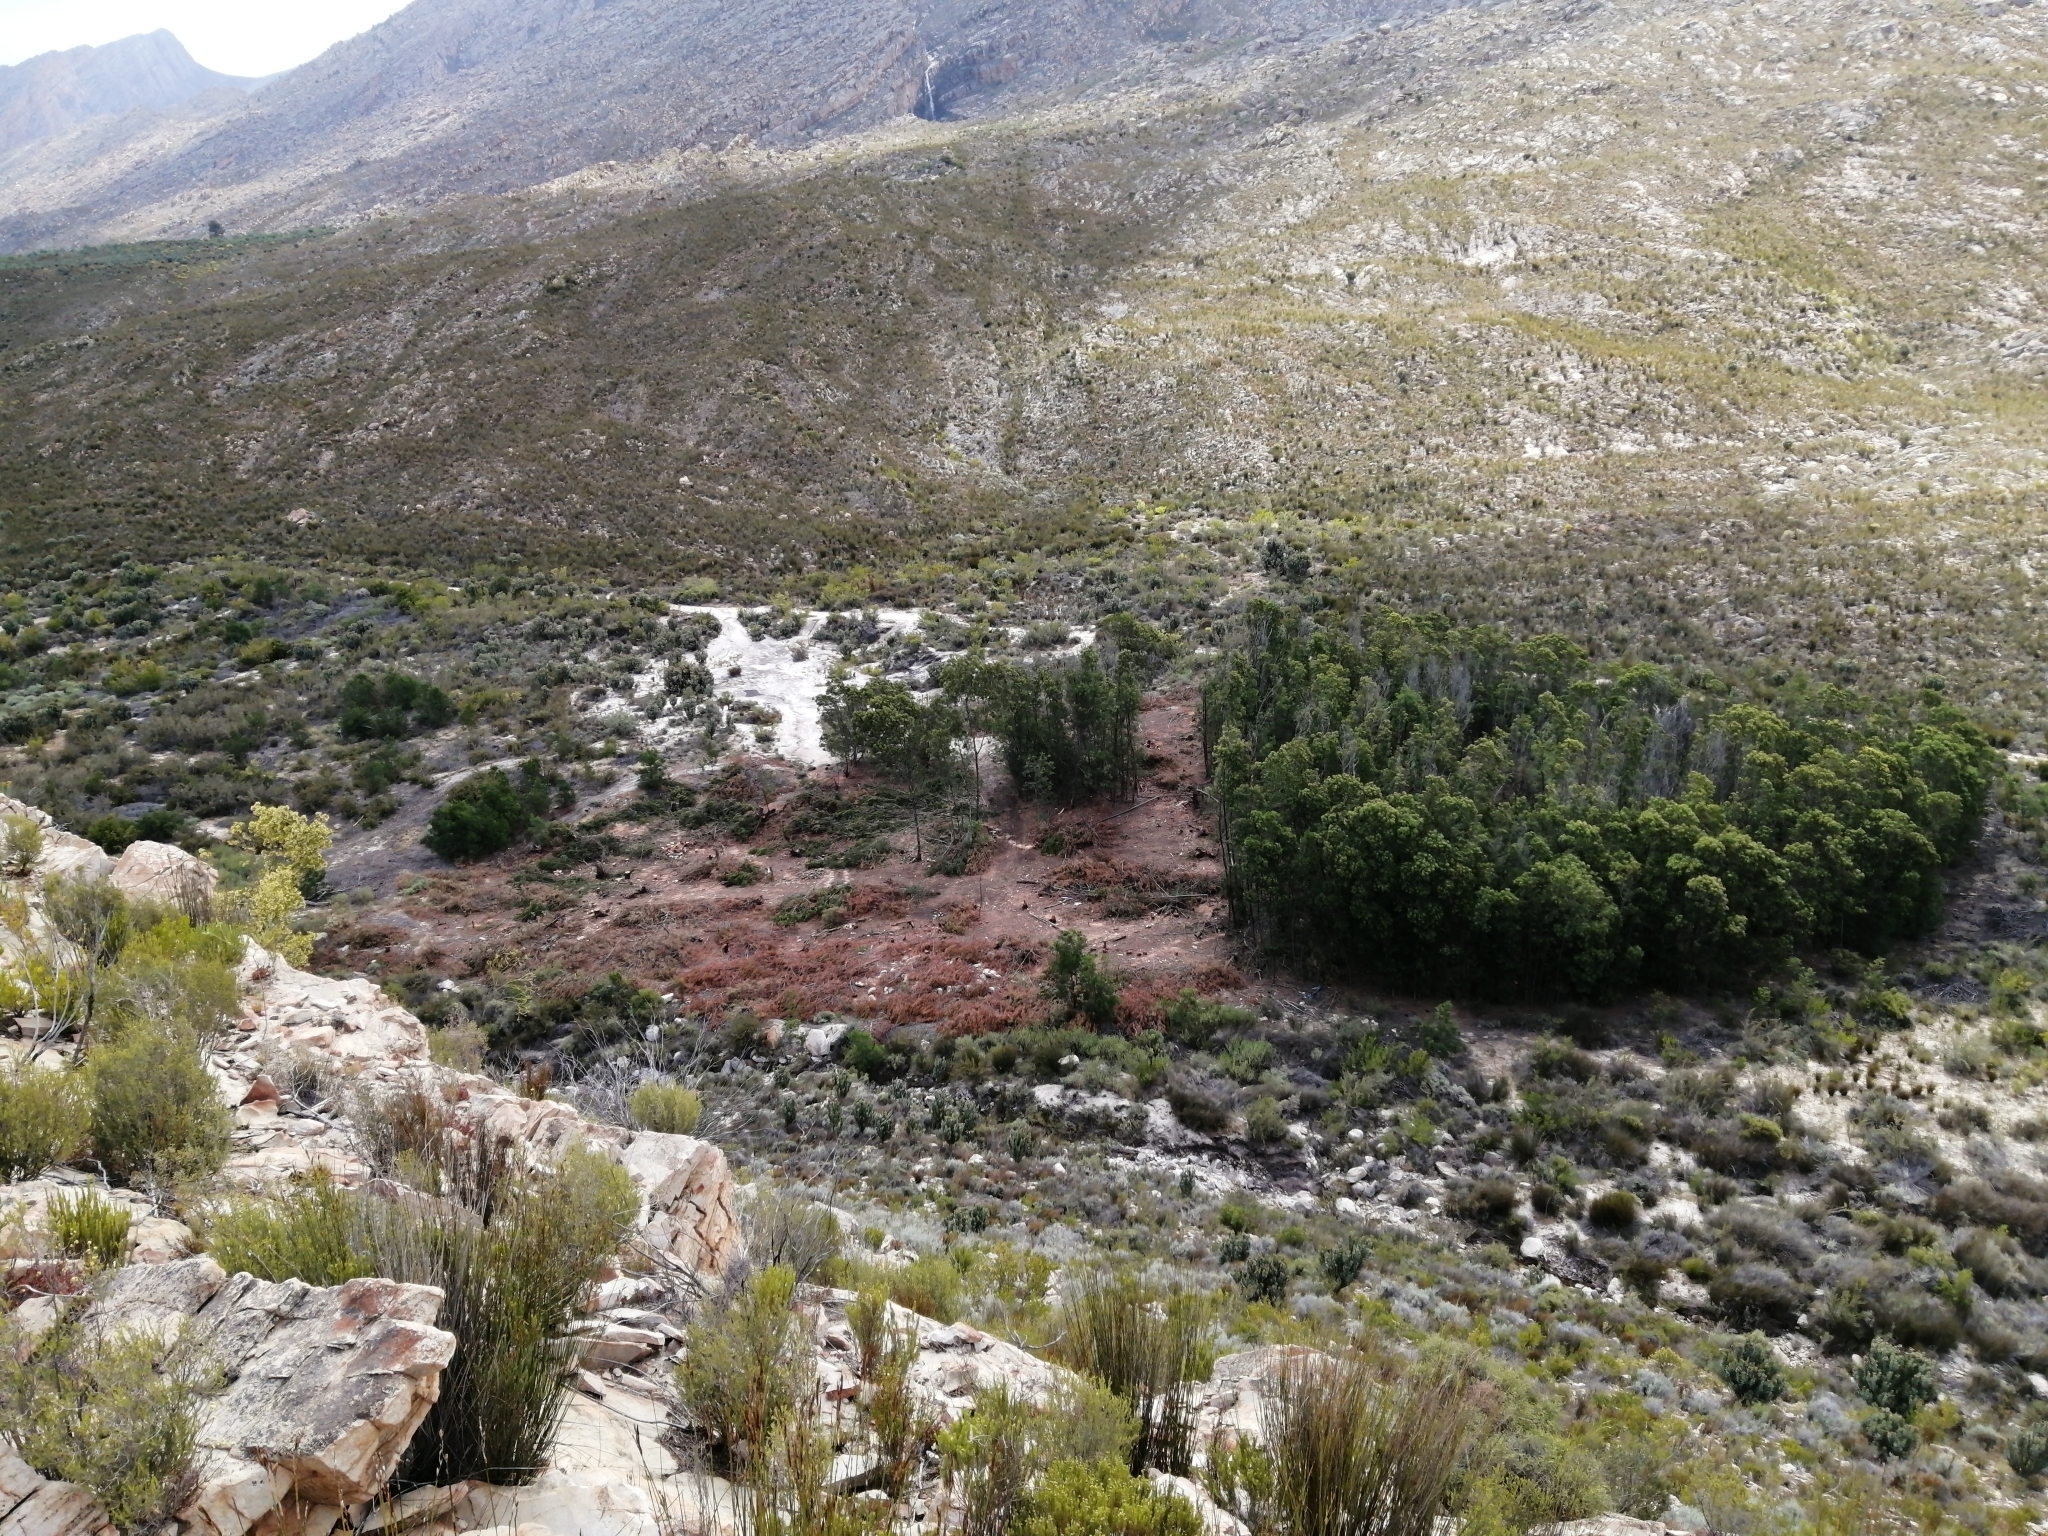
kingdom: Plantae
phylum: Tracheophyta
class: Magnoliopsida
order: Fabales
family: Fabaceae
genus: Acacia
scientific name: Acacia mearnsii
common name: Black wattle
